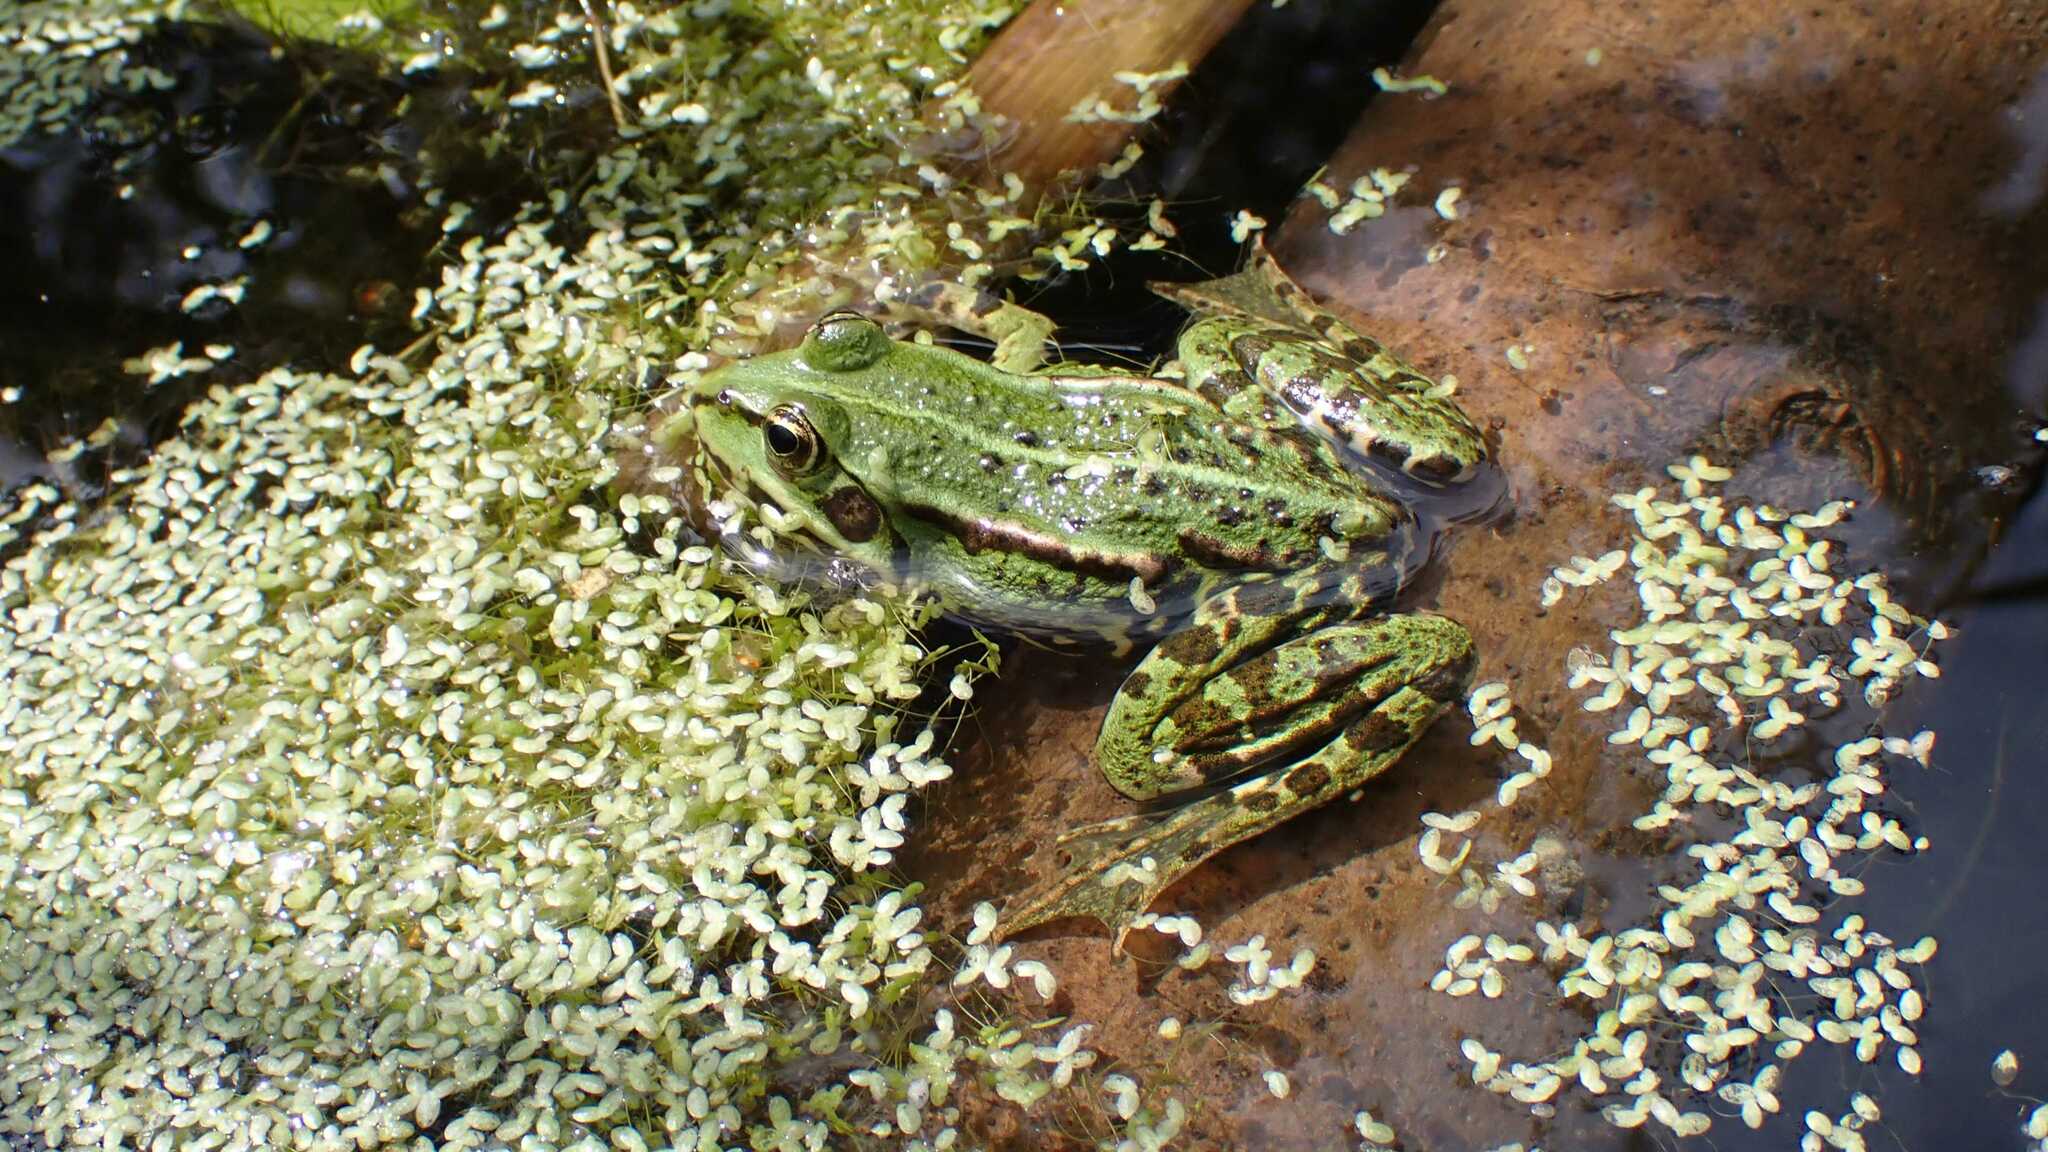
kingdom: Animalia
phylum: Chordata
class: Amphibia
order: Anura
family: Ranidae
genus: Pelophylax
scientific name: Pelophylax
